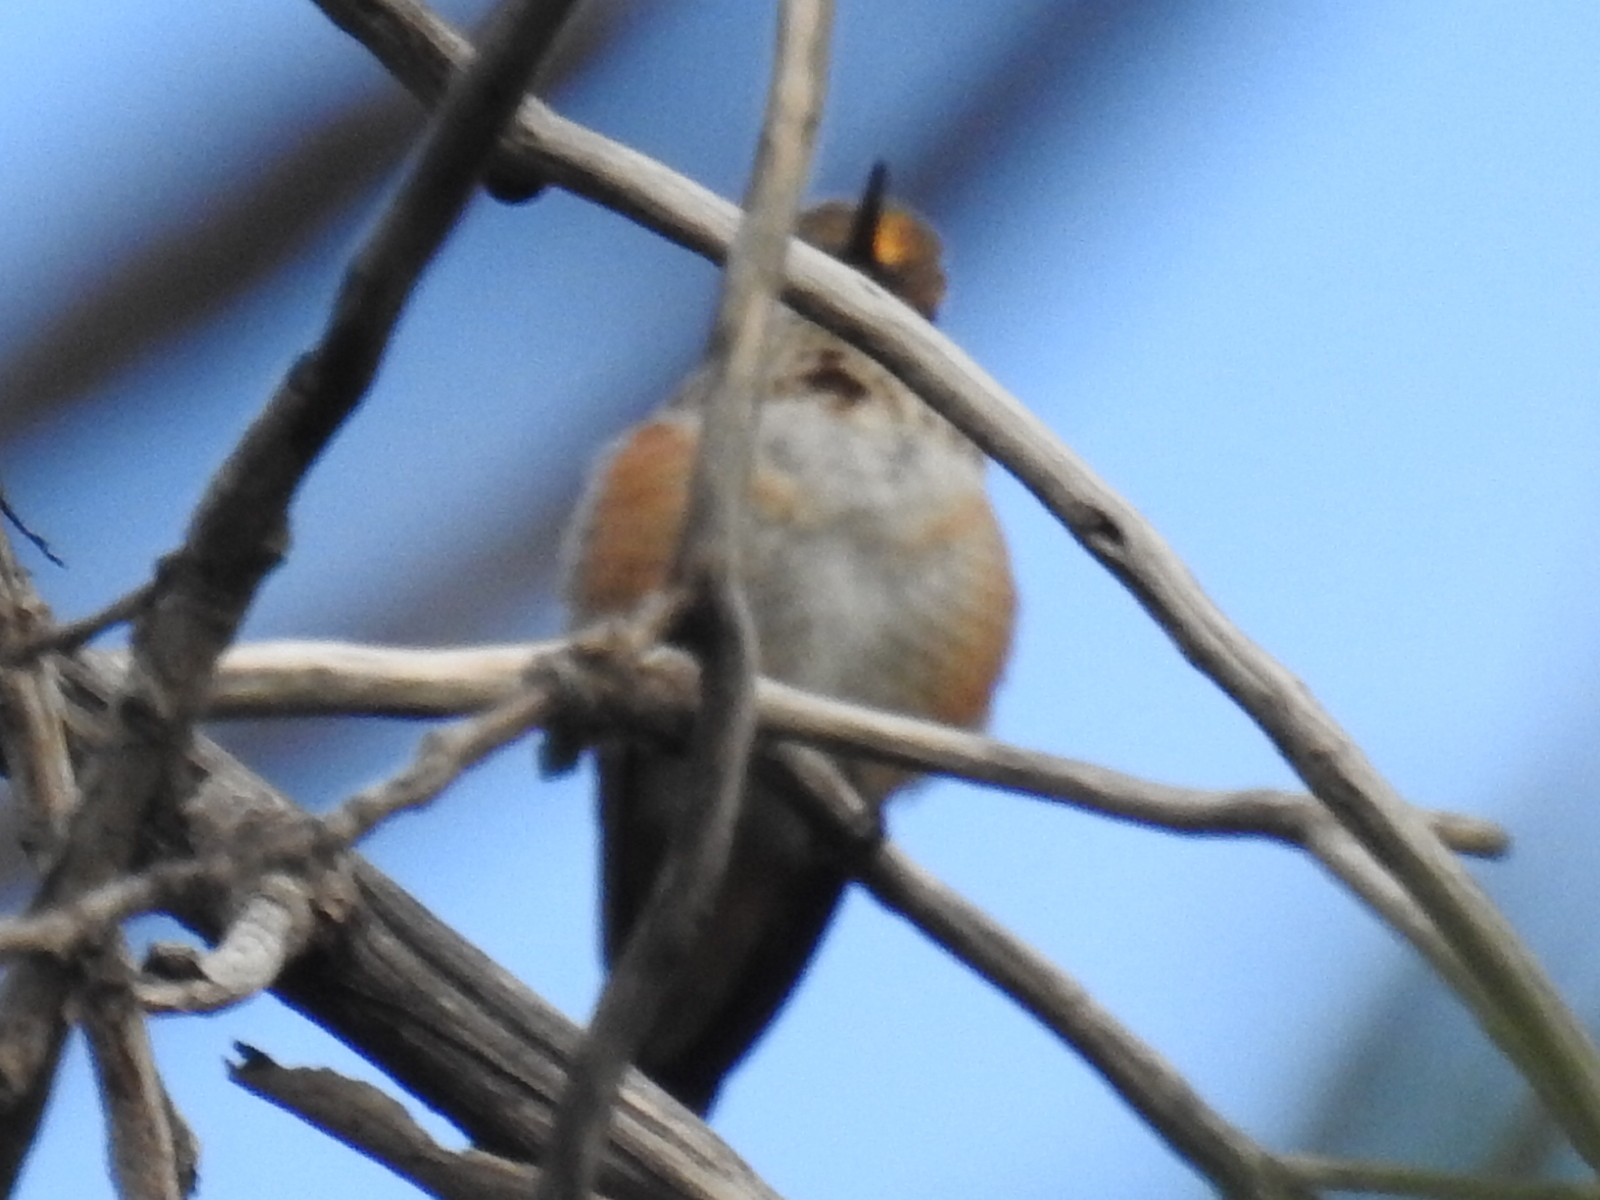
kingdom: Animalia
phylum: Chordata
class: Aves
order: Apodiformes
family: Trochilidae
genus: Selasphorus
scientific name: Selasphorus
